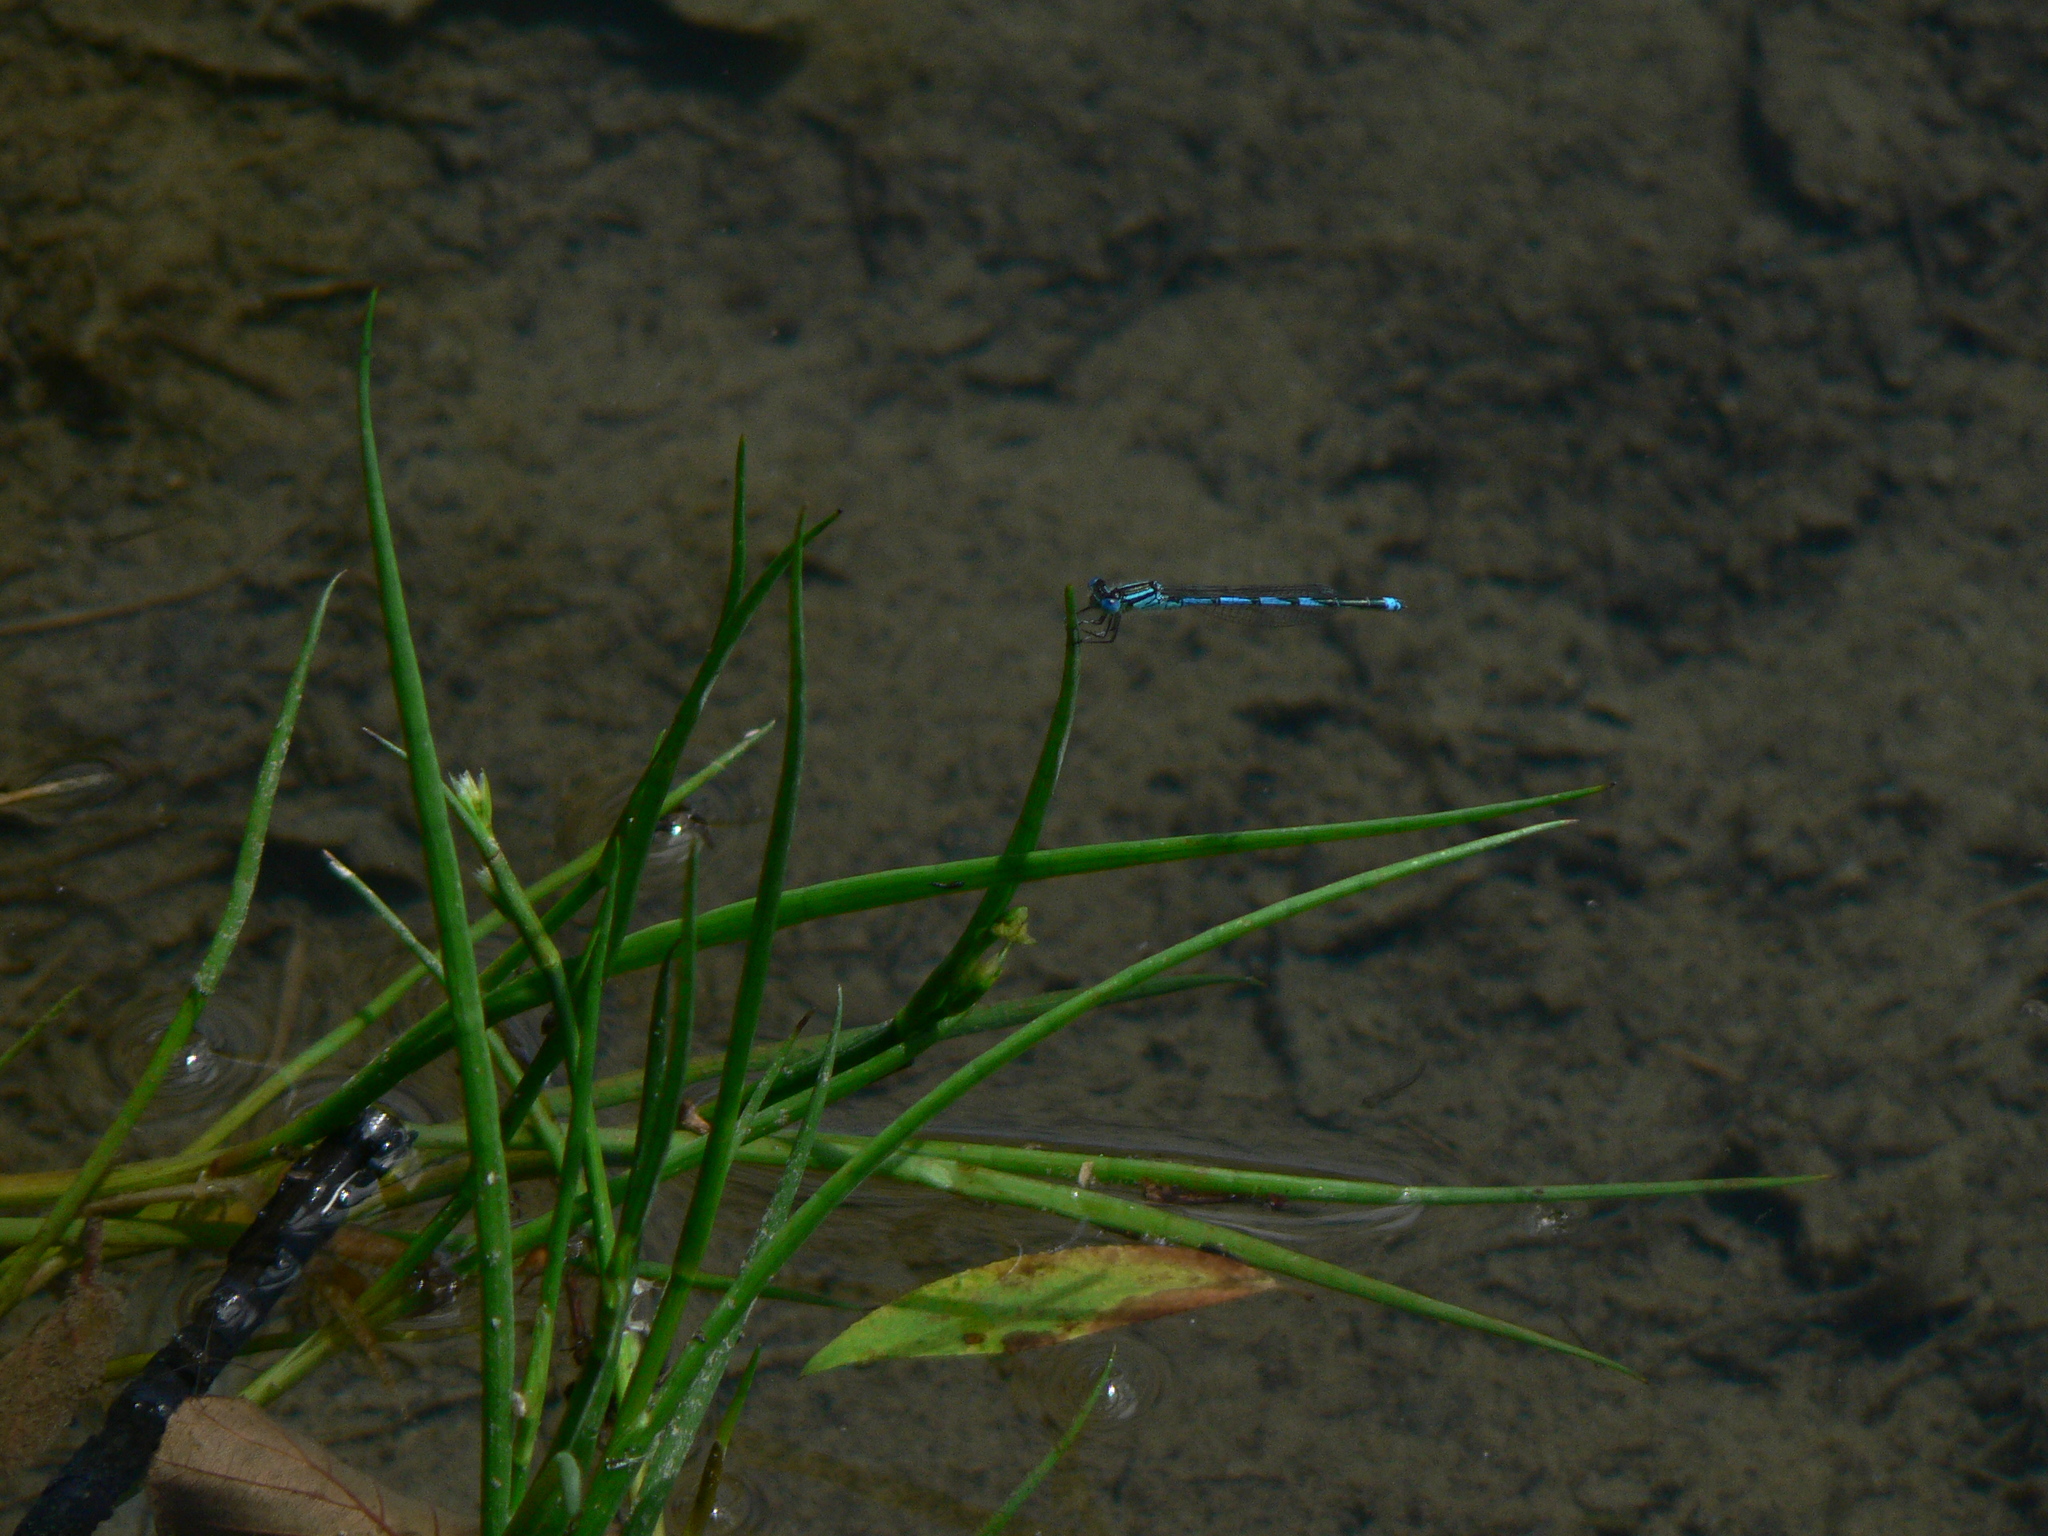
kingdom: Animalia
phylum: Arthropoda
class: Insecta
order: Odonata
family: Coenagrionidae
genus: Erythromma
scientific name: Erythromma lindenii
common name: Blue-eye
